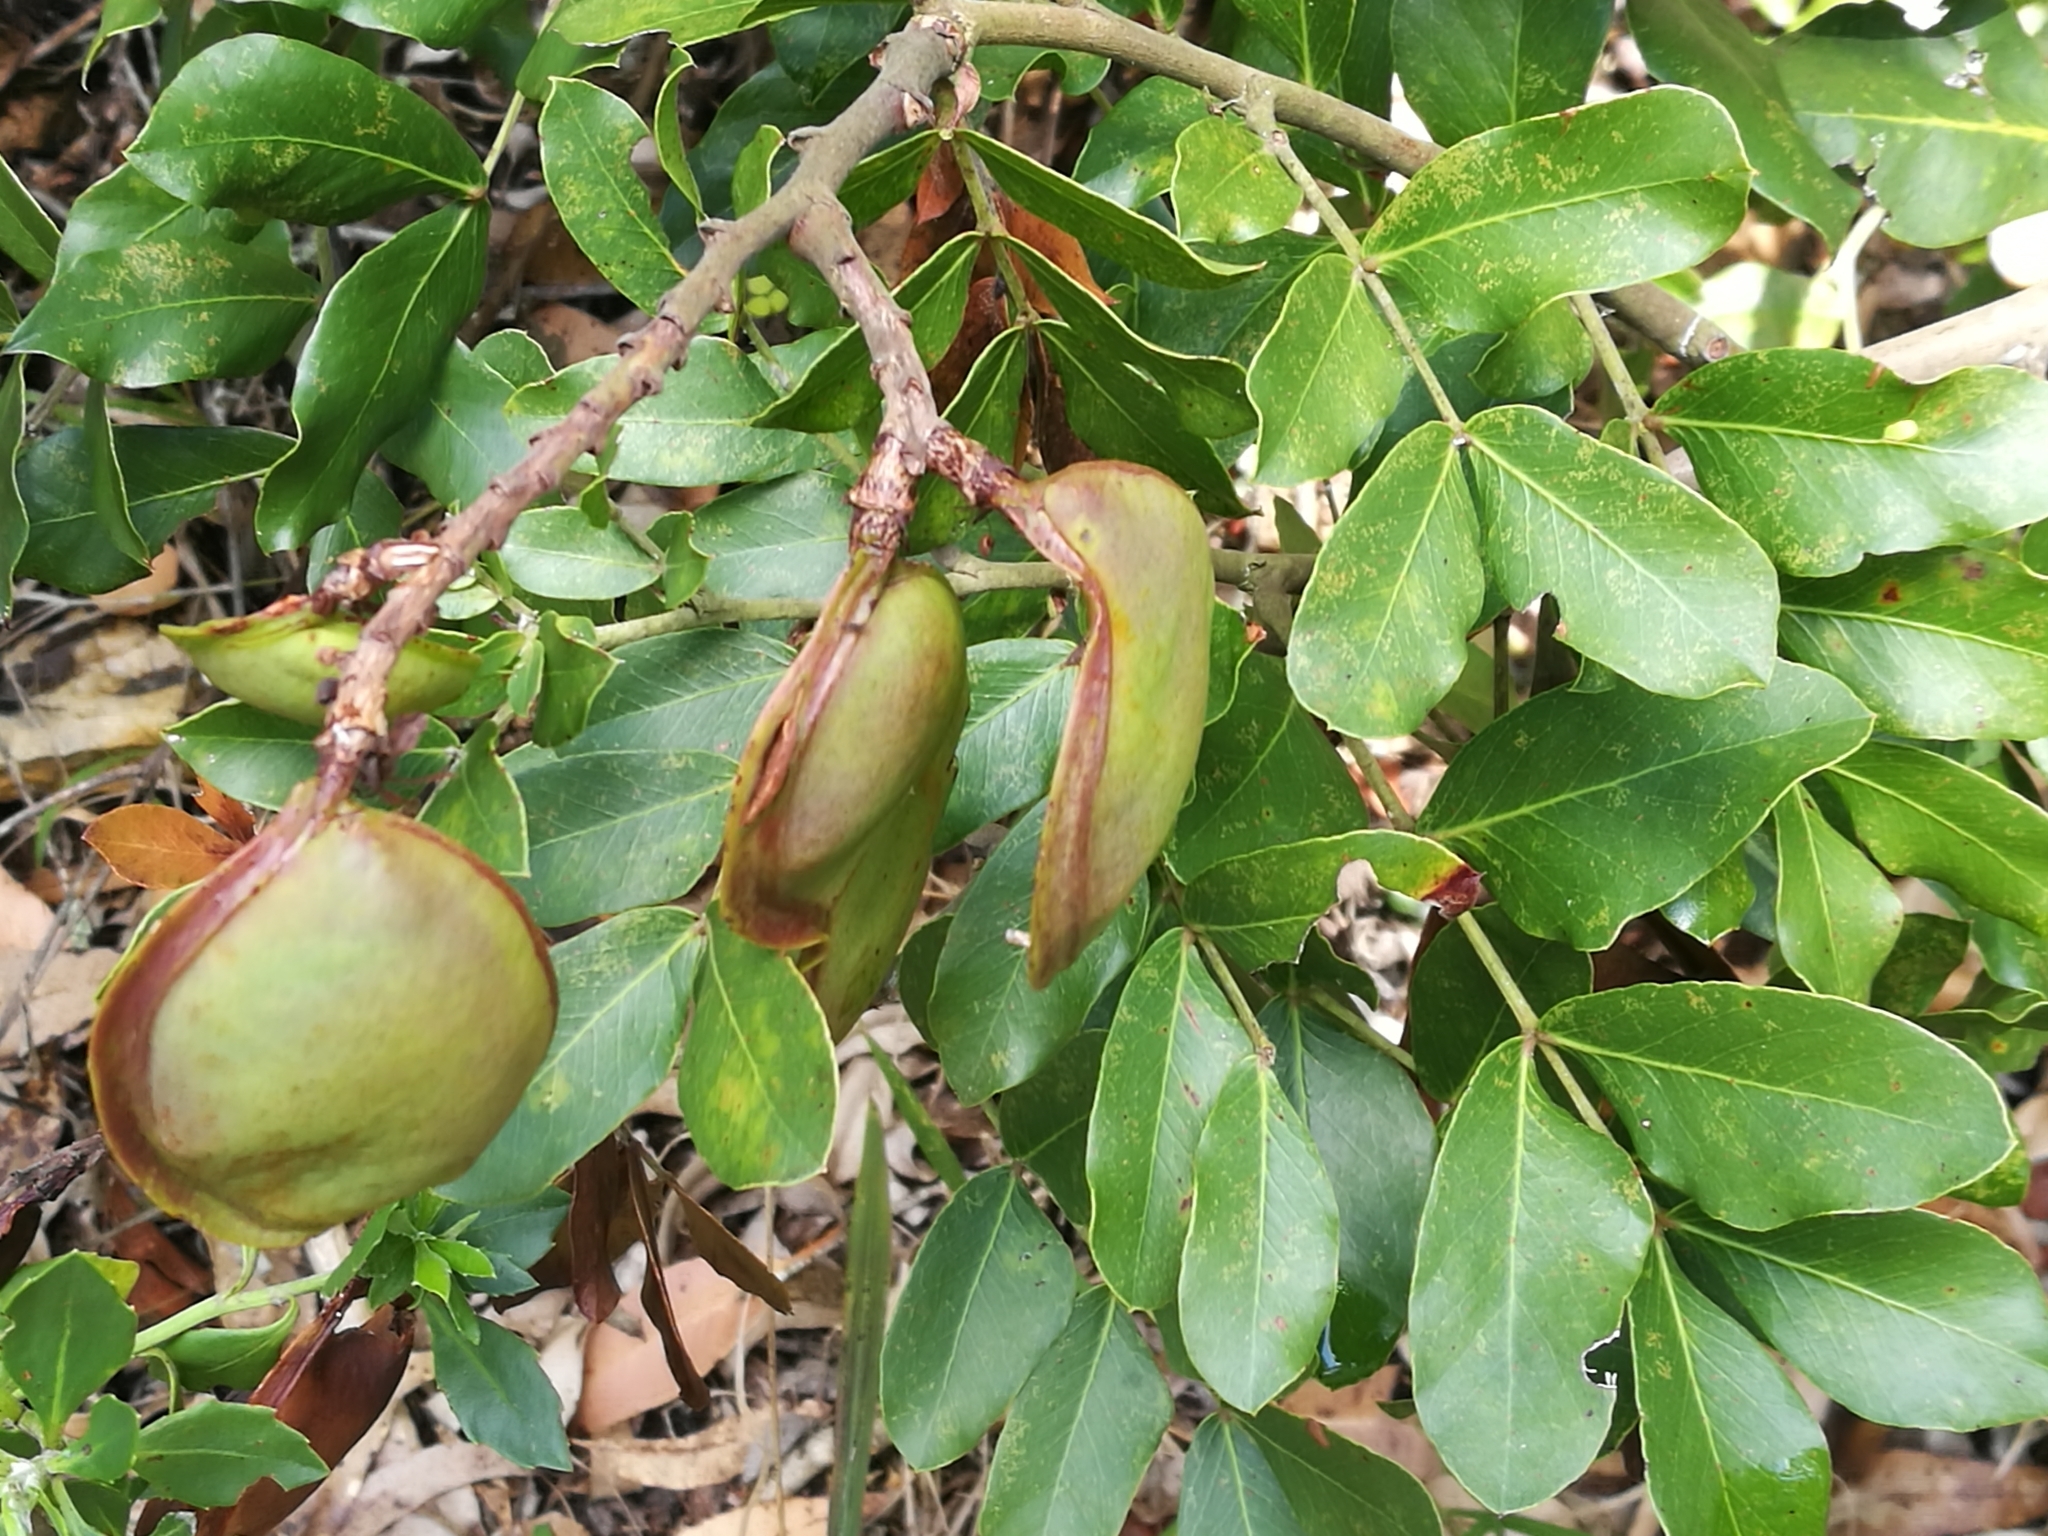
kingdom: Plantae
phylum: Tracheophyta
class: Magnoliopsida
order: Fabales
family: Fabaceae
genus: Schotia
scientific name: Schotia latifolia
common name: Bush boer-bean
